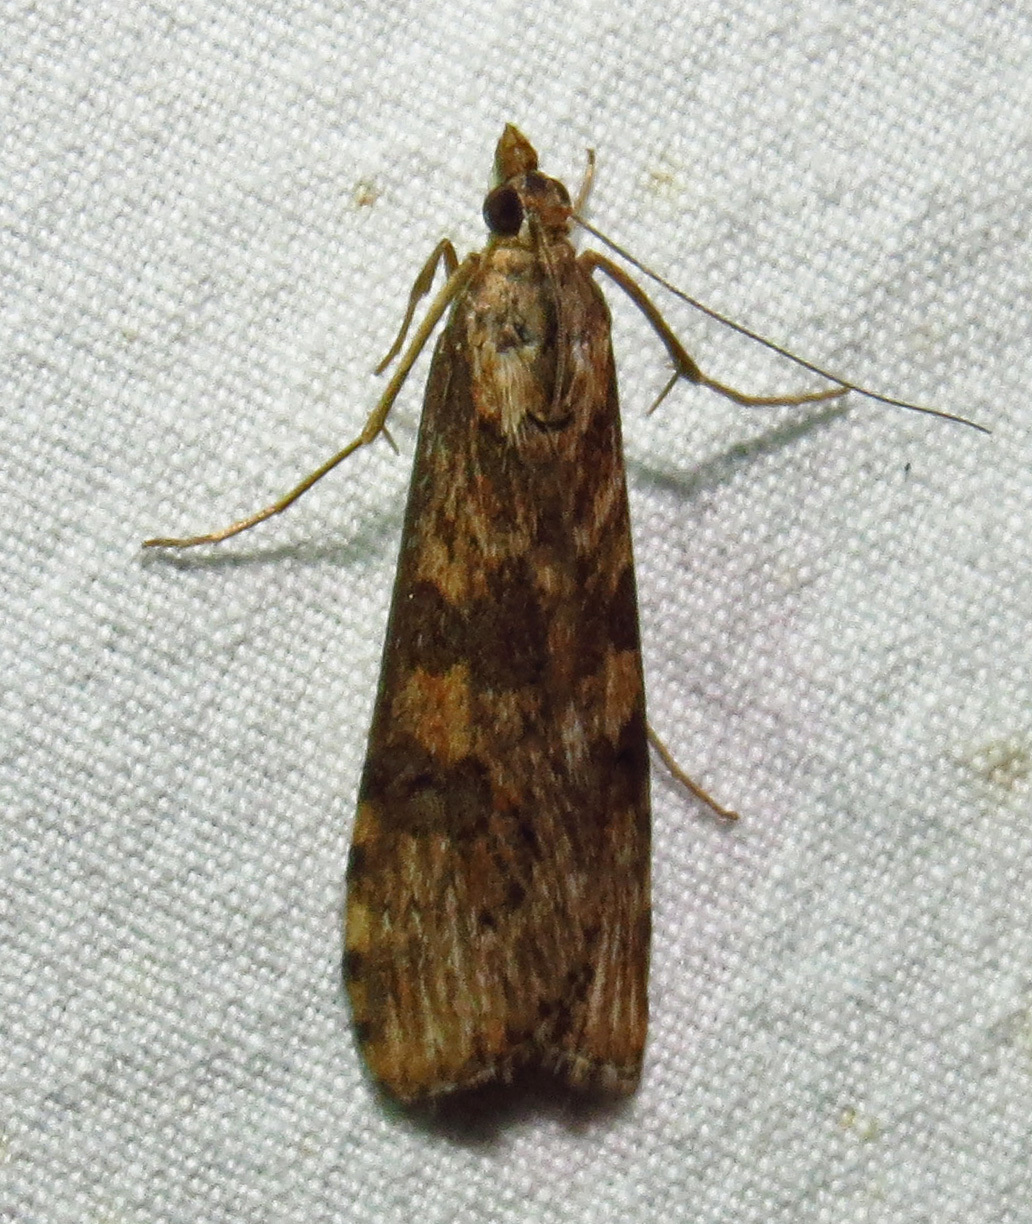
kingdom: Animalia
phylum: Arthropoda
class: Insecta
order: Lepidoptera
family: Crambidae
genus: Nomophila
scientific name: Nomophila nearctica
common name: American rush veneer
